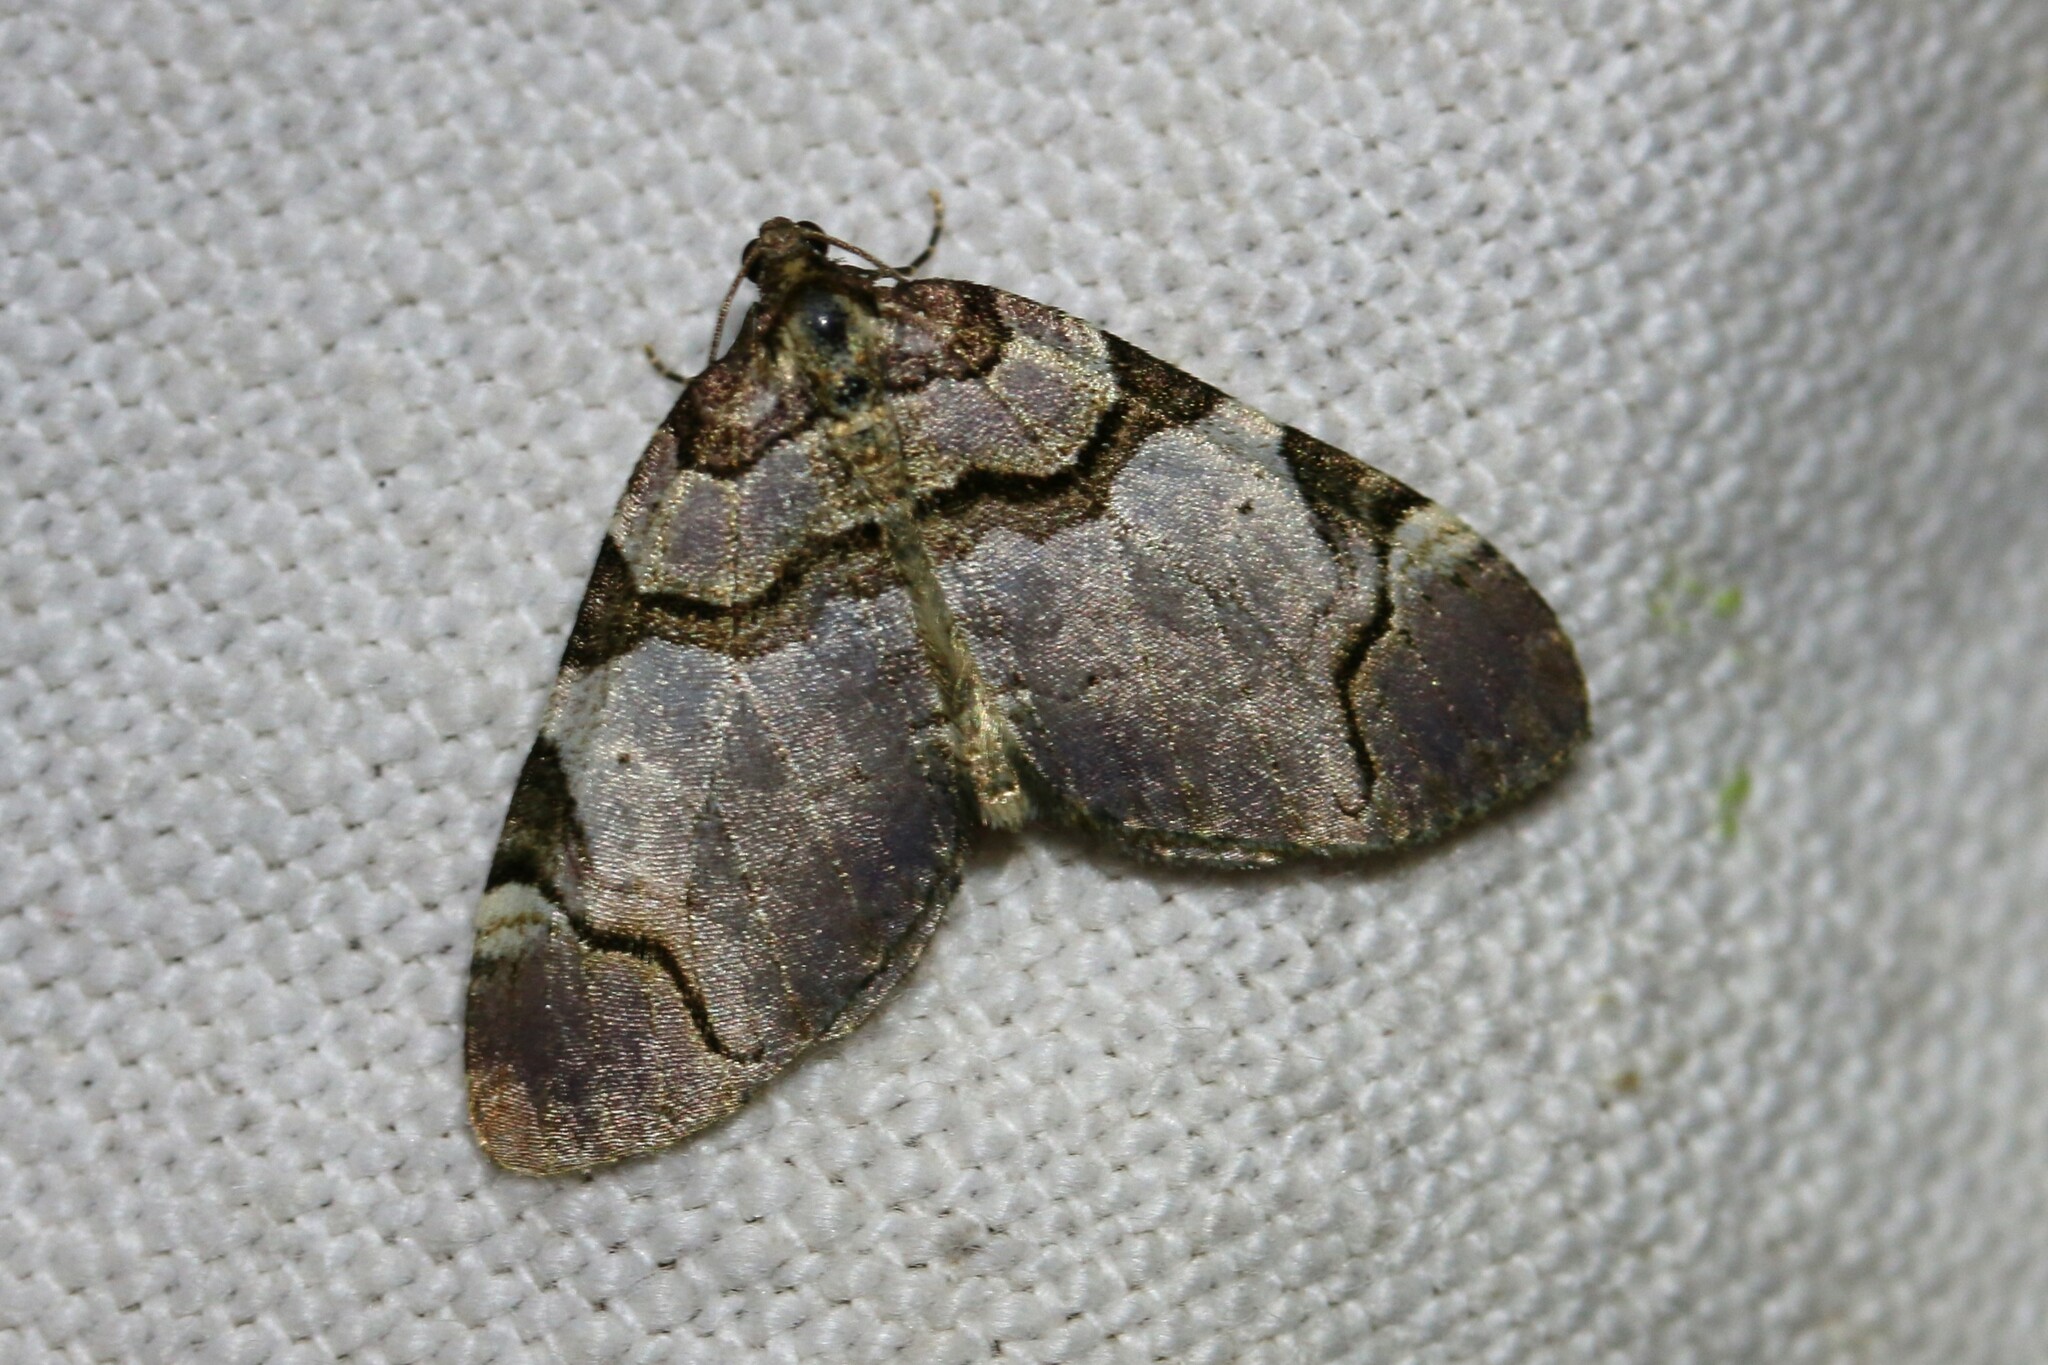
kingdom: Animalia
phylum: Arthropoda
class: Insecta
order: Lepidoptera
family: Geometridae
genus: Anticlea
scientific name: Anticlea derivata
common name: Streamer
